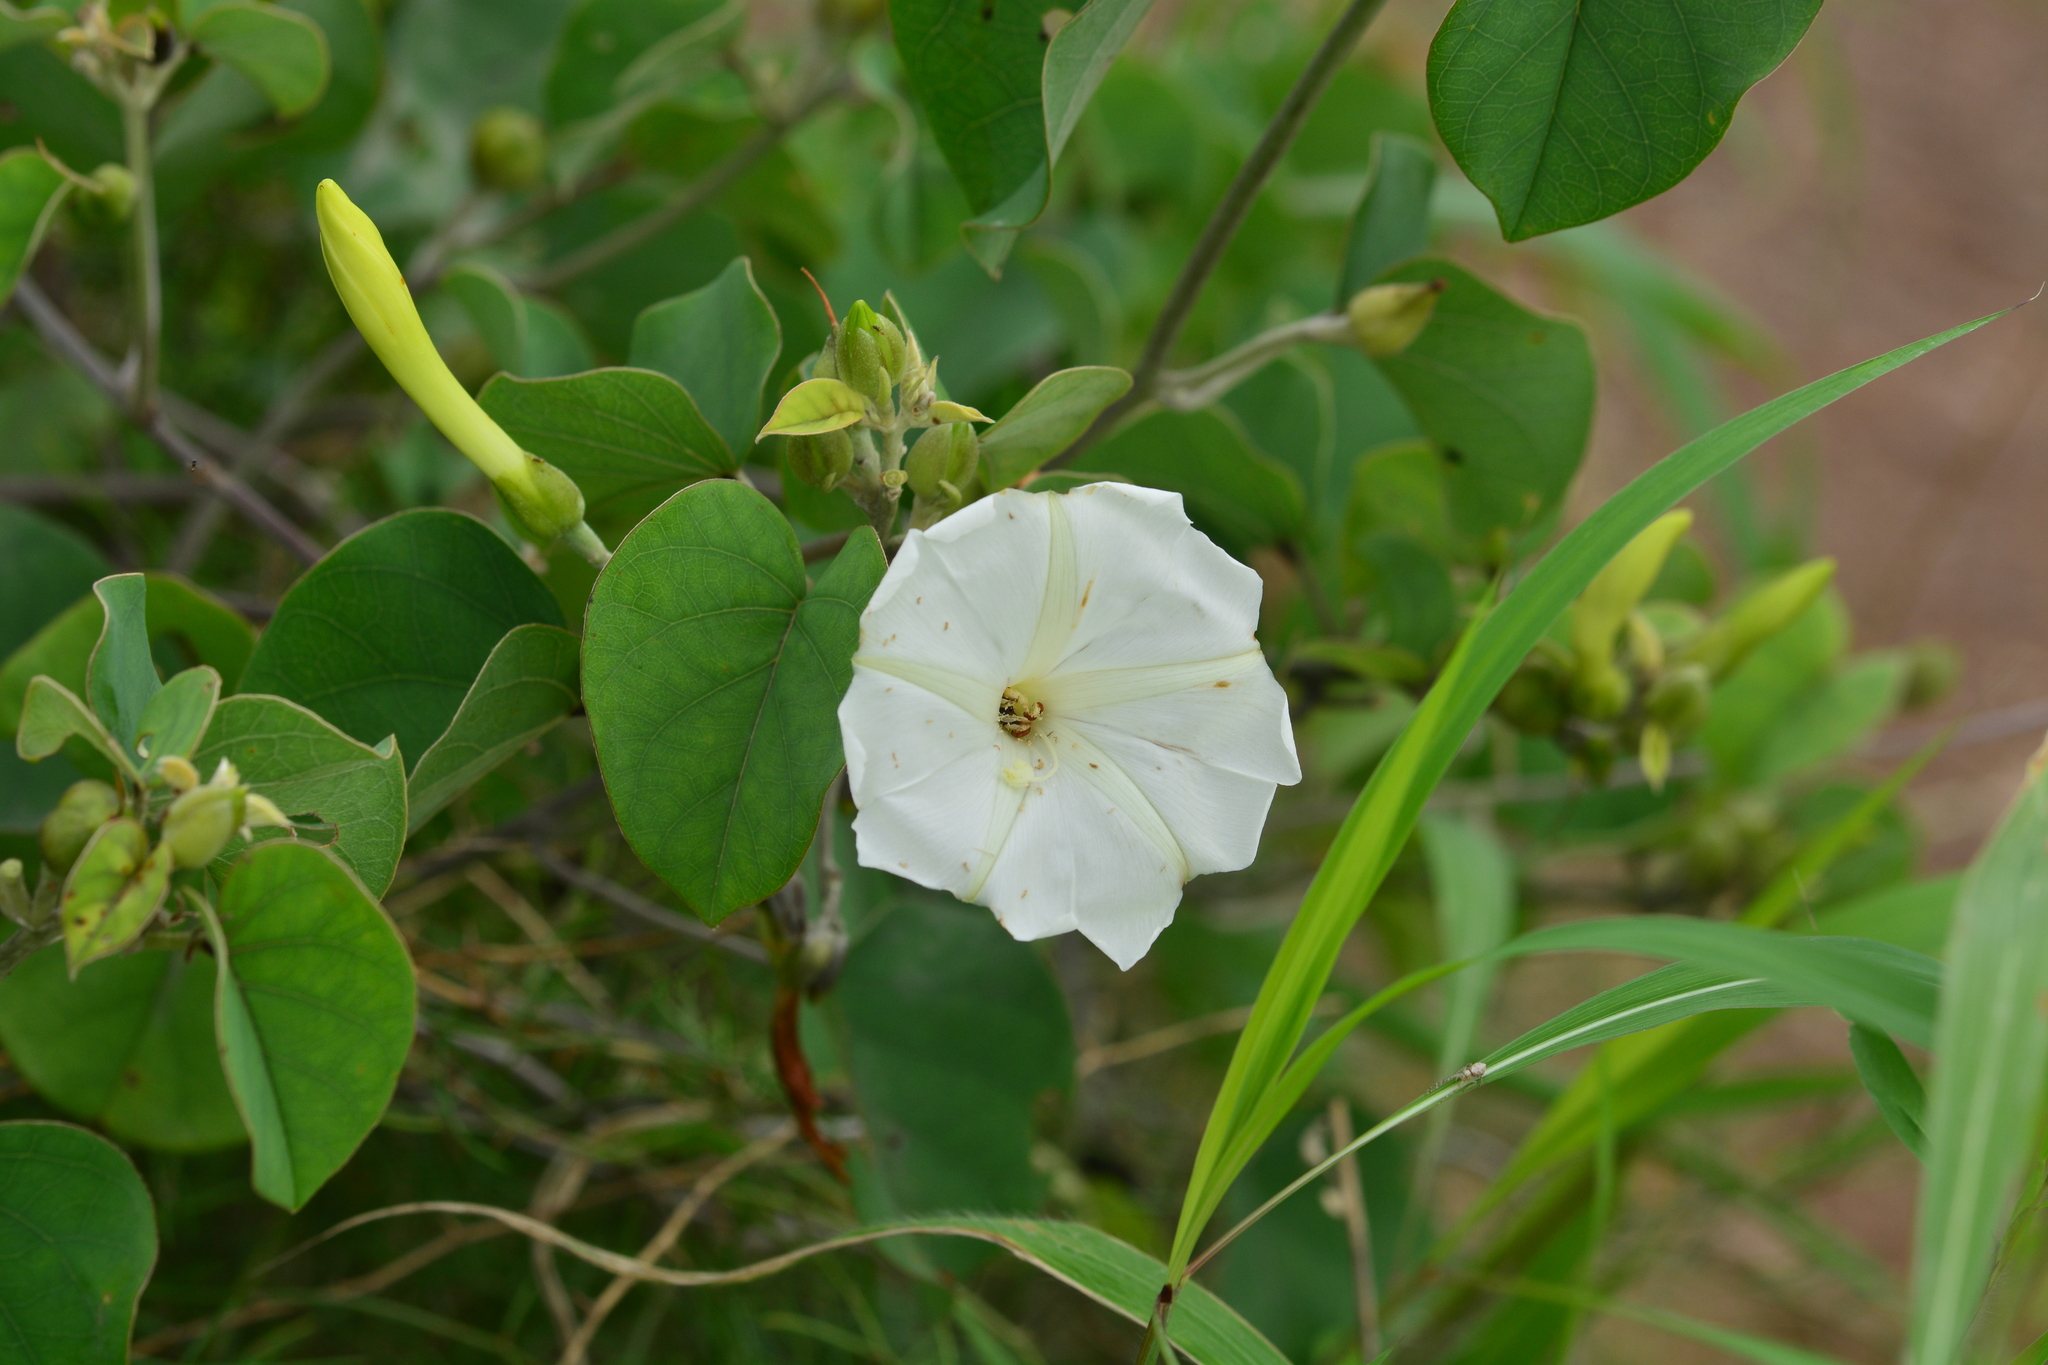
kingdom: Plantae
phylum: Tracheophyta
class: Magnoliopsida
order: Solanales
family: Convolvulaceae
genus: Rivea
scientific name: Rivea hypocrateriformis
